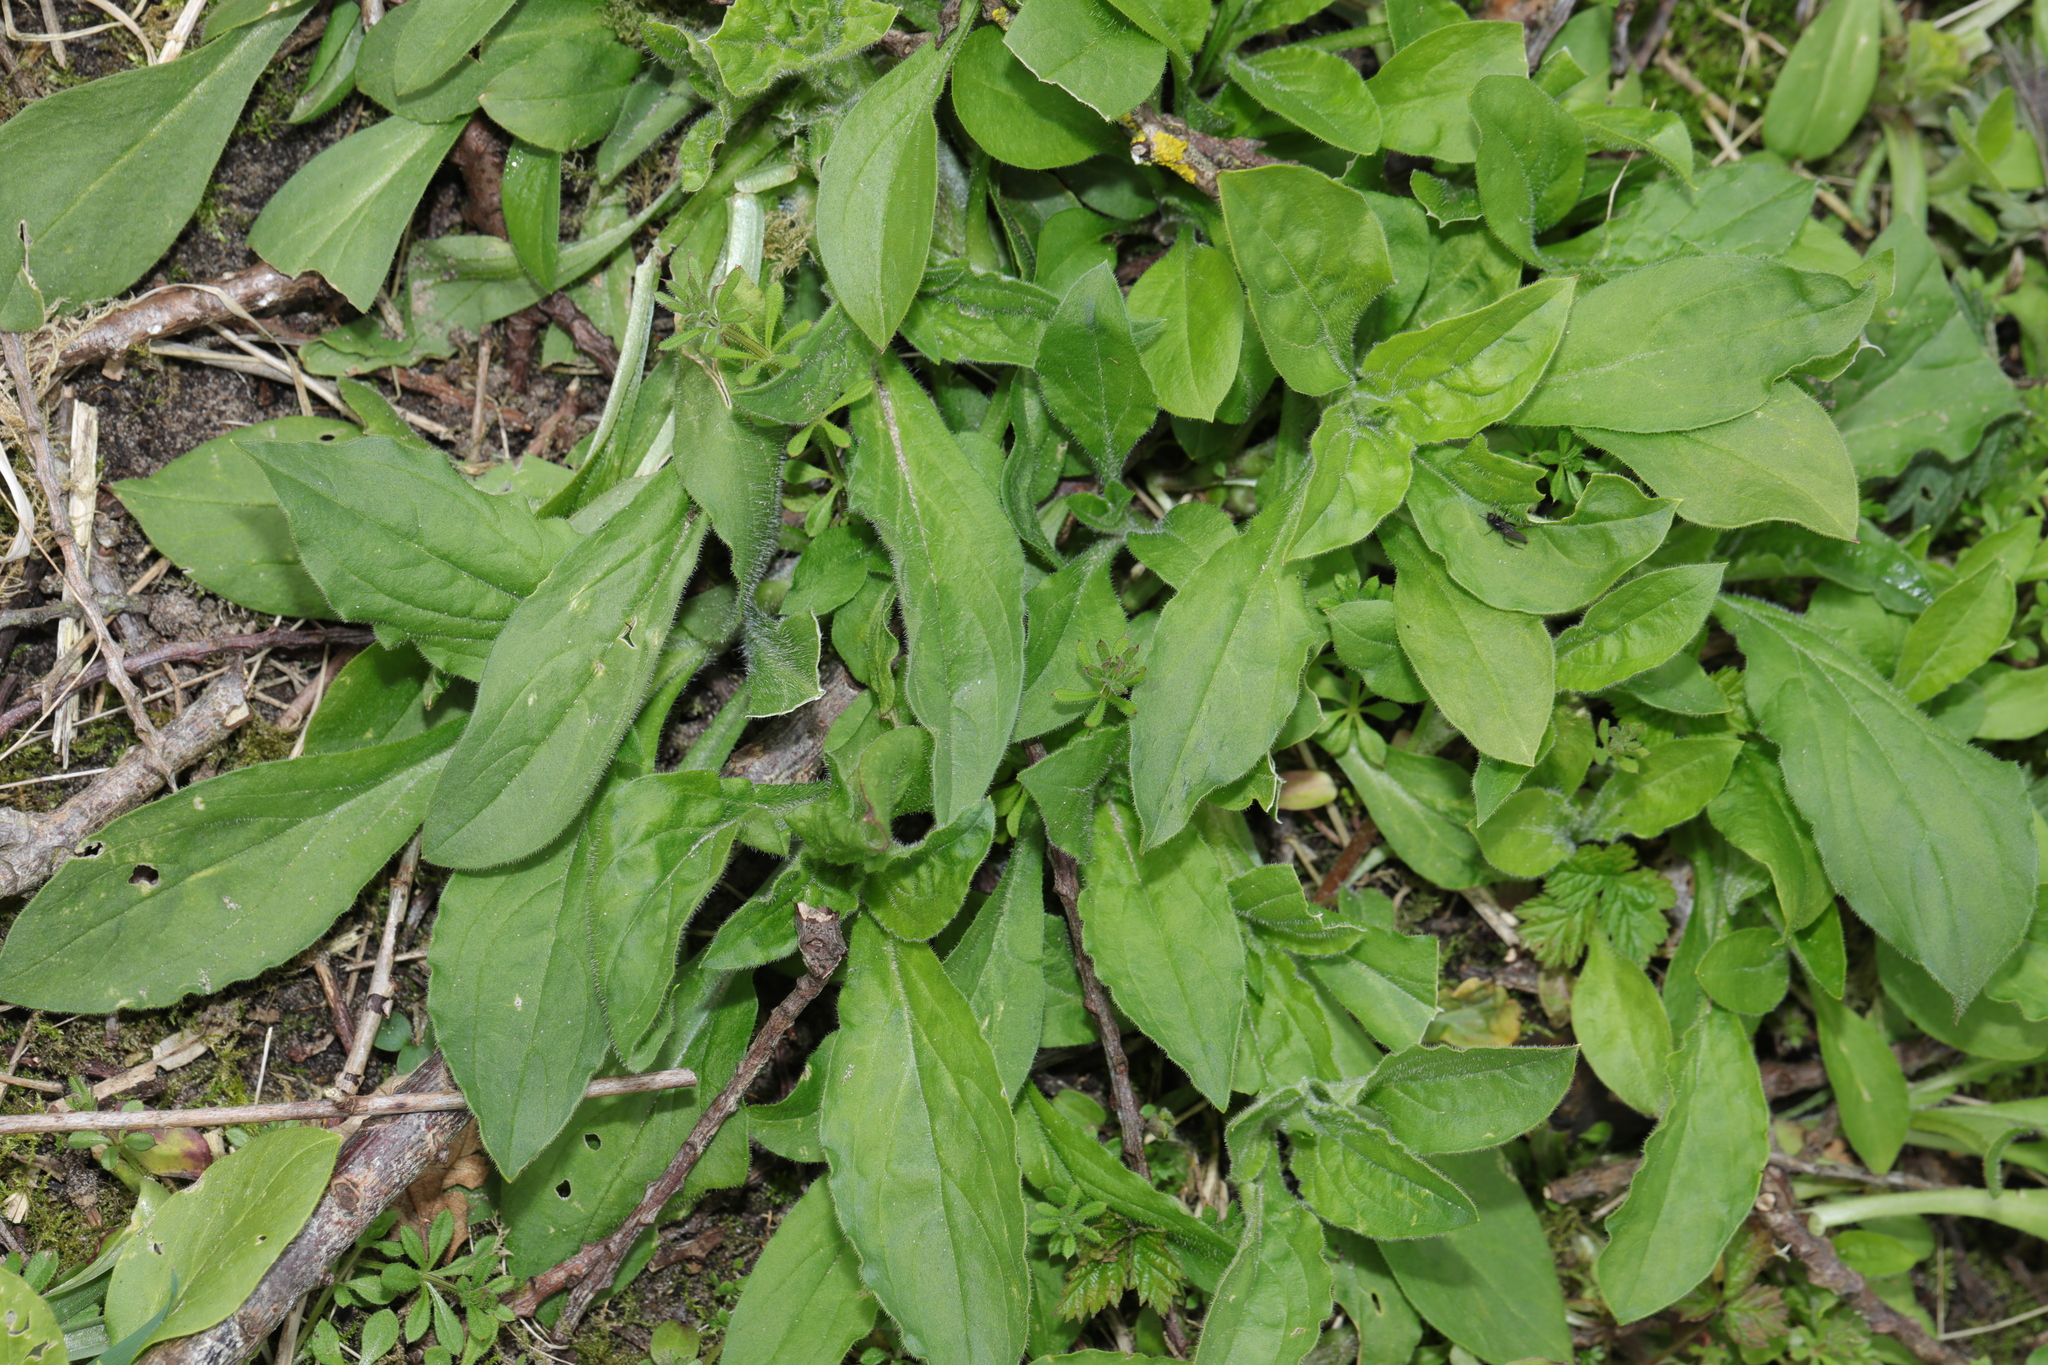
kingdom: Plantae
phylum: Tracheophyta
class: Magnoliopsida
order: Caryophyllales
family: Caryophyllaceae
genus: Silene
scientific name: Silene
